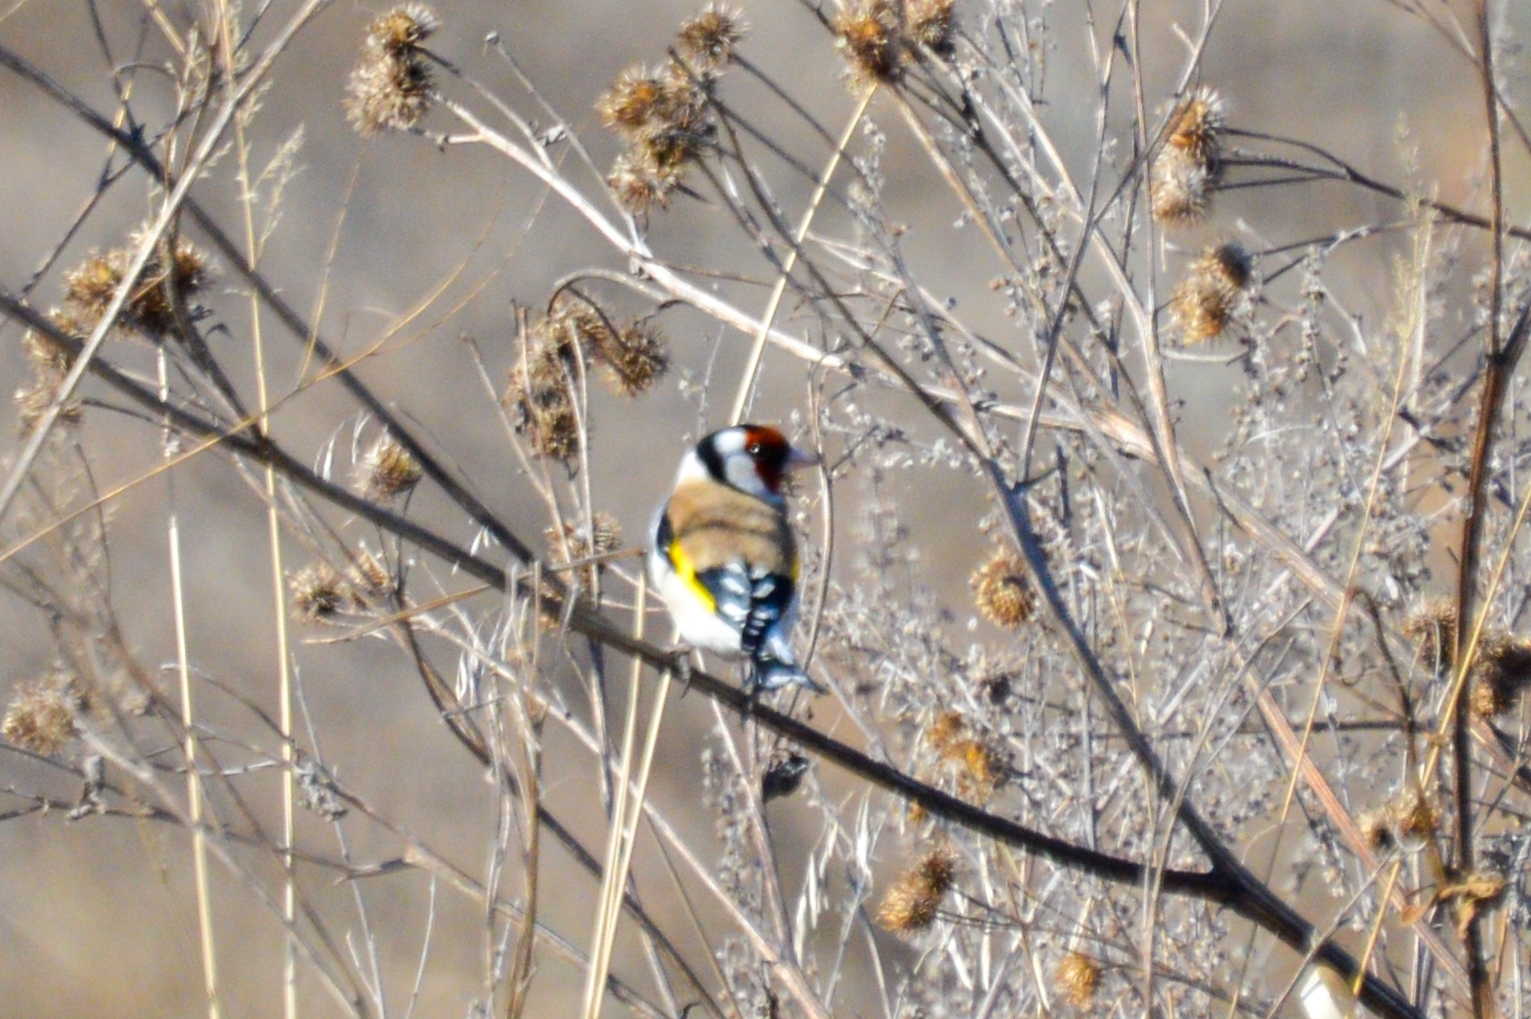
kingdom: Animalia
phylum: Chordata
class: Aves
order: Passeriformes
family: Fringillidae
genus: Carduelis
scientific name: Carduelis carduelis
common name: European goldfinch
